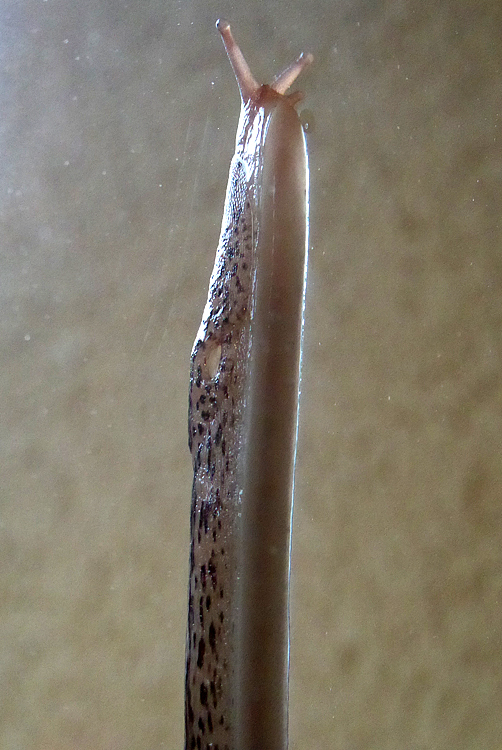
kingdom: Animalia
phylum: Mollusca
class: Gastropoda
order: Stylommatophora
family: Limacidae
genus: Limax
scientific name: Limax maximus
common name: Great grey slug
